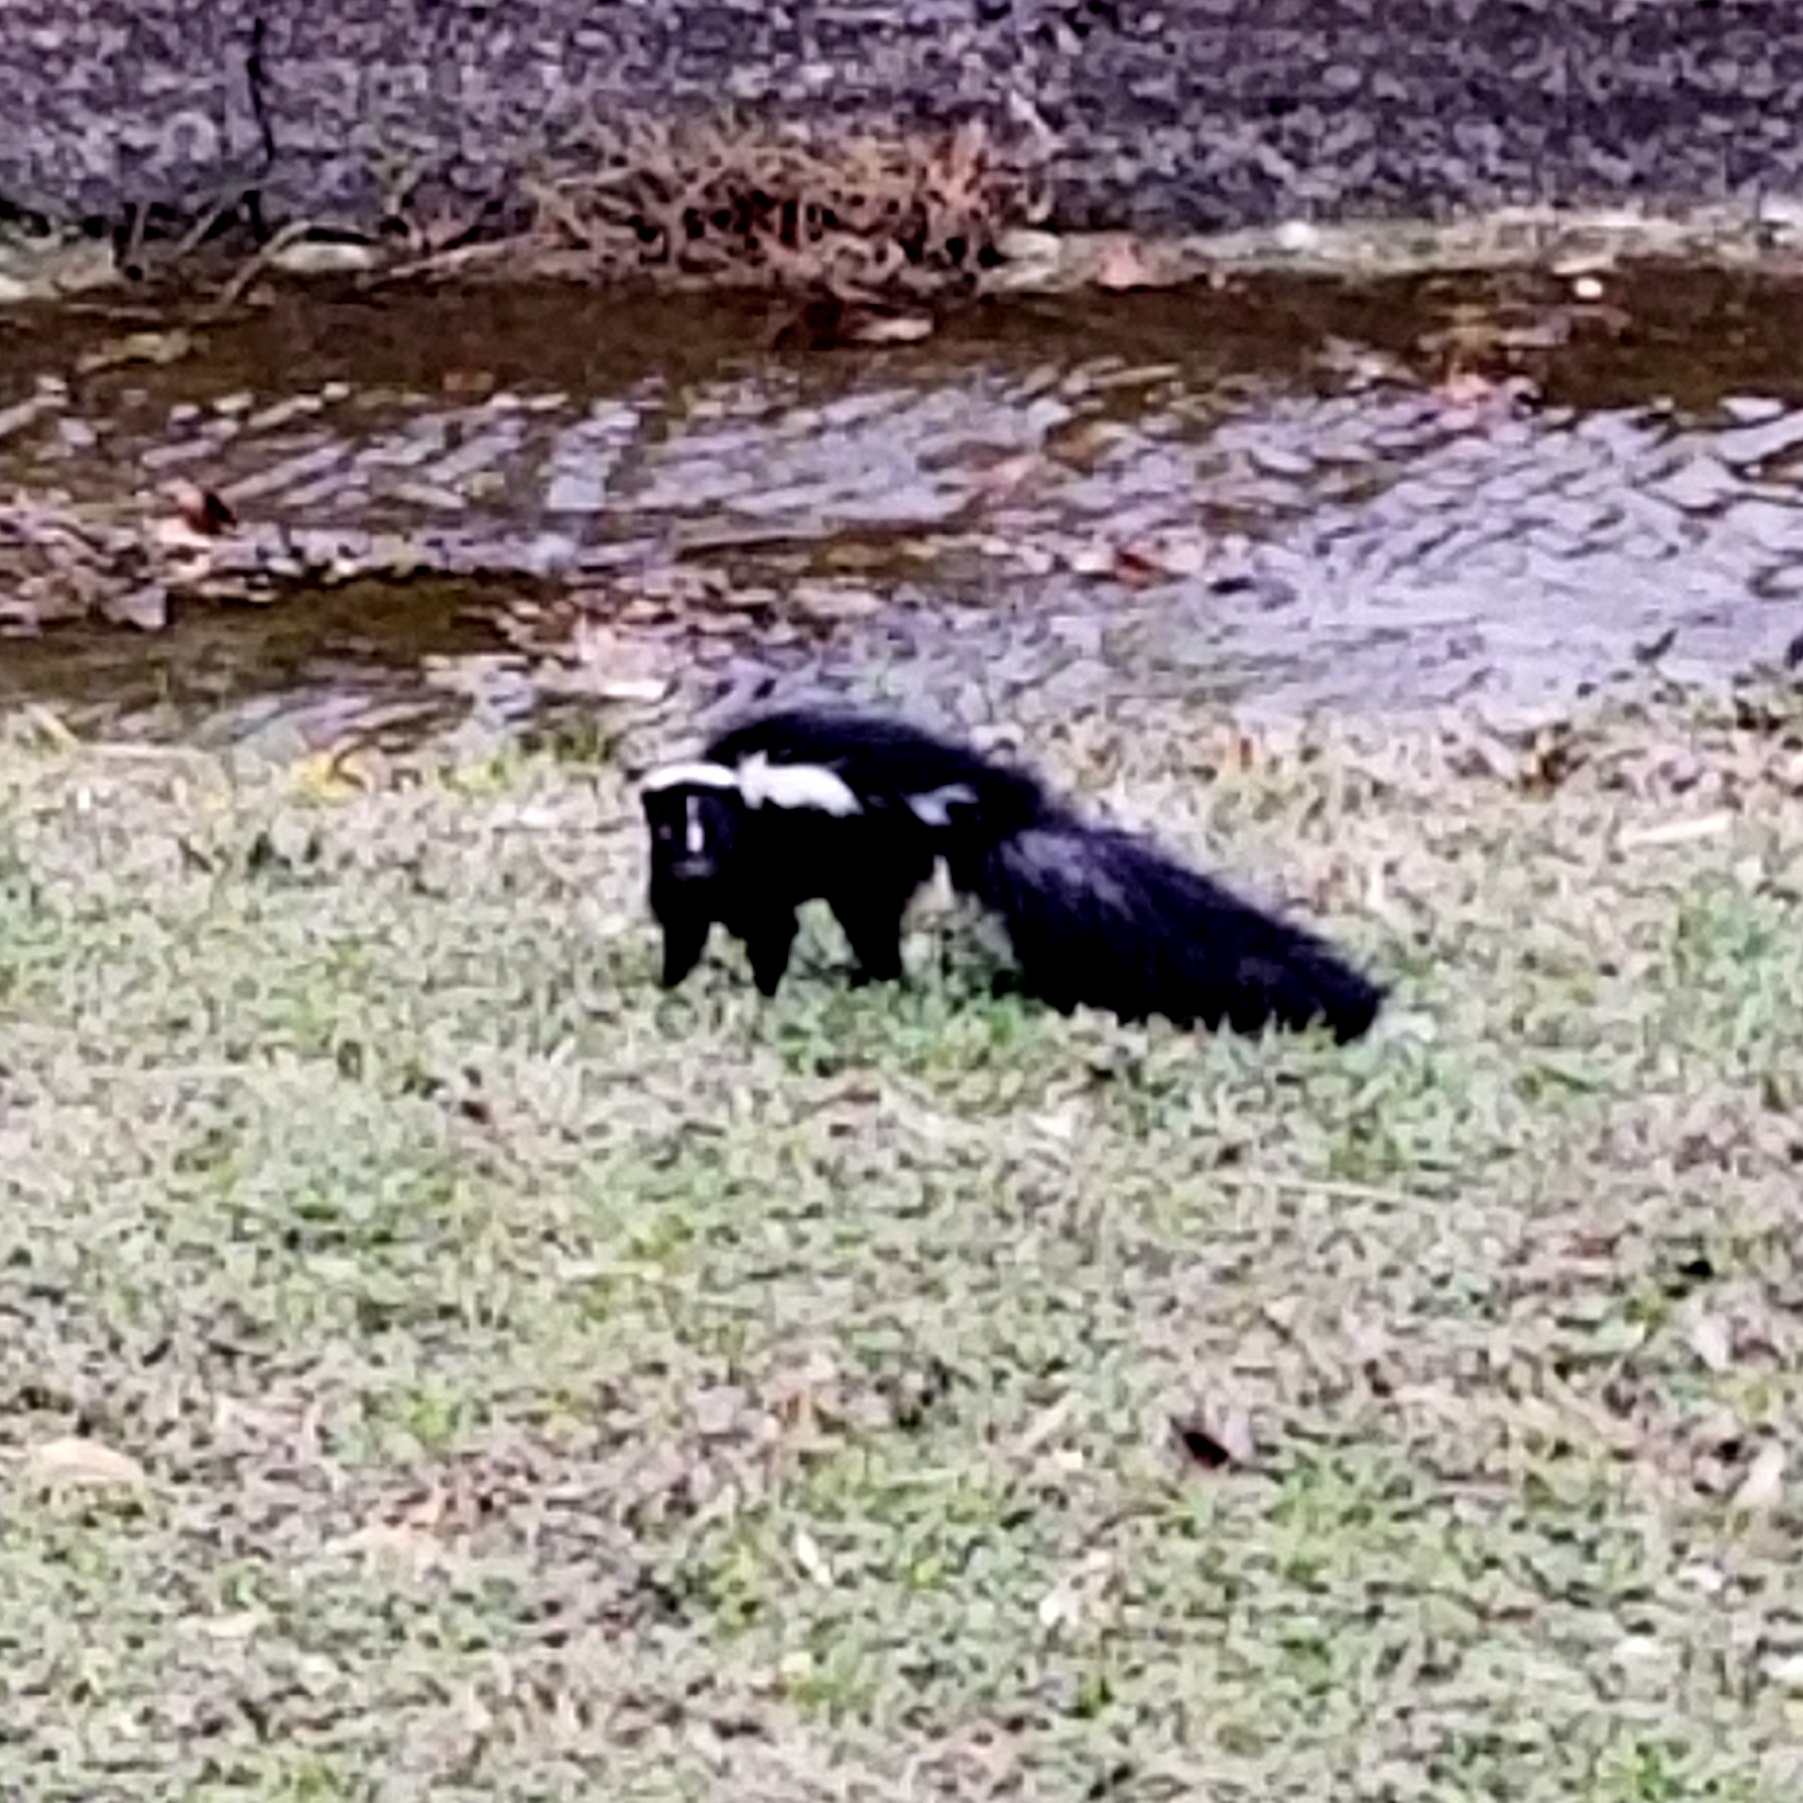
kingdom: Animalia
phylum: Chordata
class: Mammalia
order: Carnivora
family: Mephitidae
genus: Mephitis
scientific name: Mephitis mephitis
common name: Striped skunk
